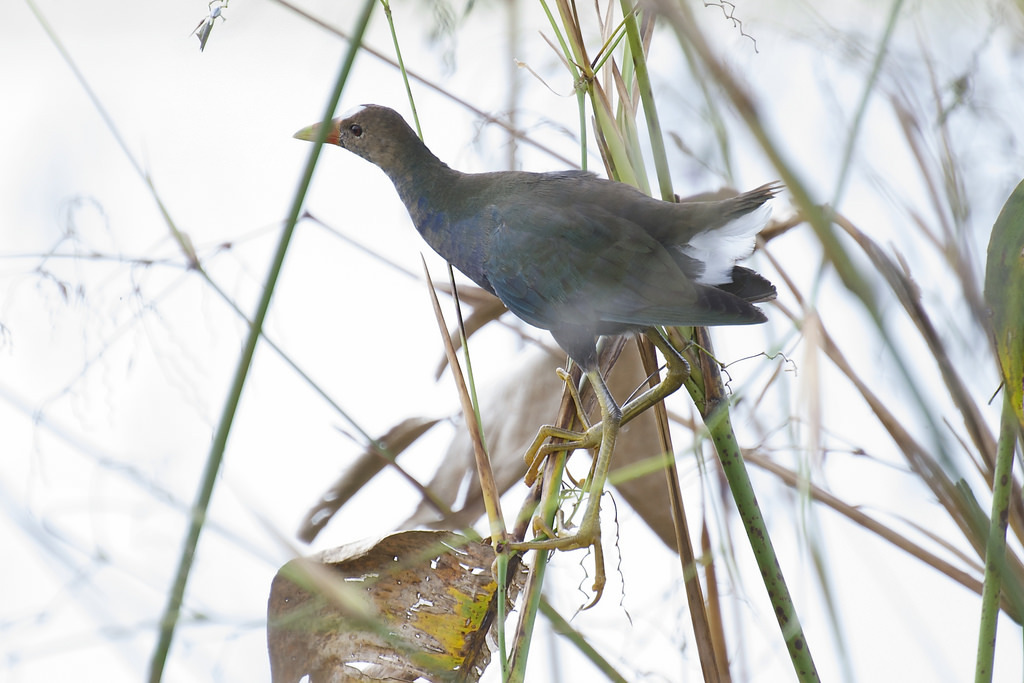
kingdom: Animalia
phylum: Chordata
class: Aves
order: Gruiformes
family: Rallidae
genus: Porphyrio
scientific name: Porphyrio martinica
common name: Purple gallinule
